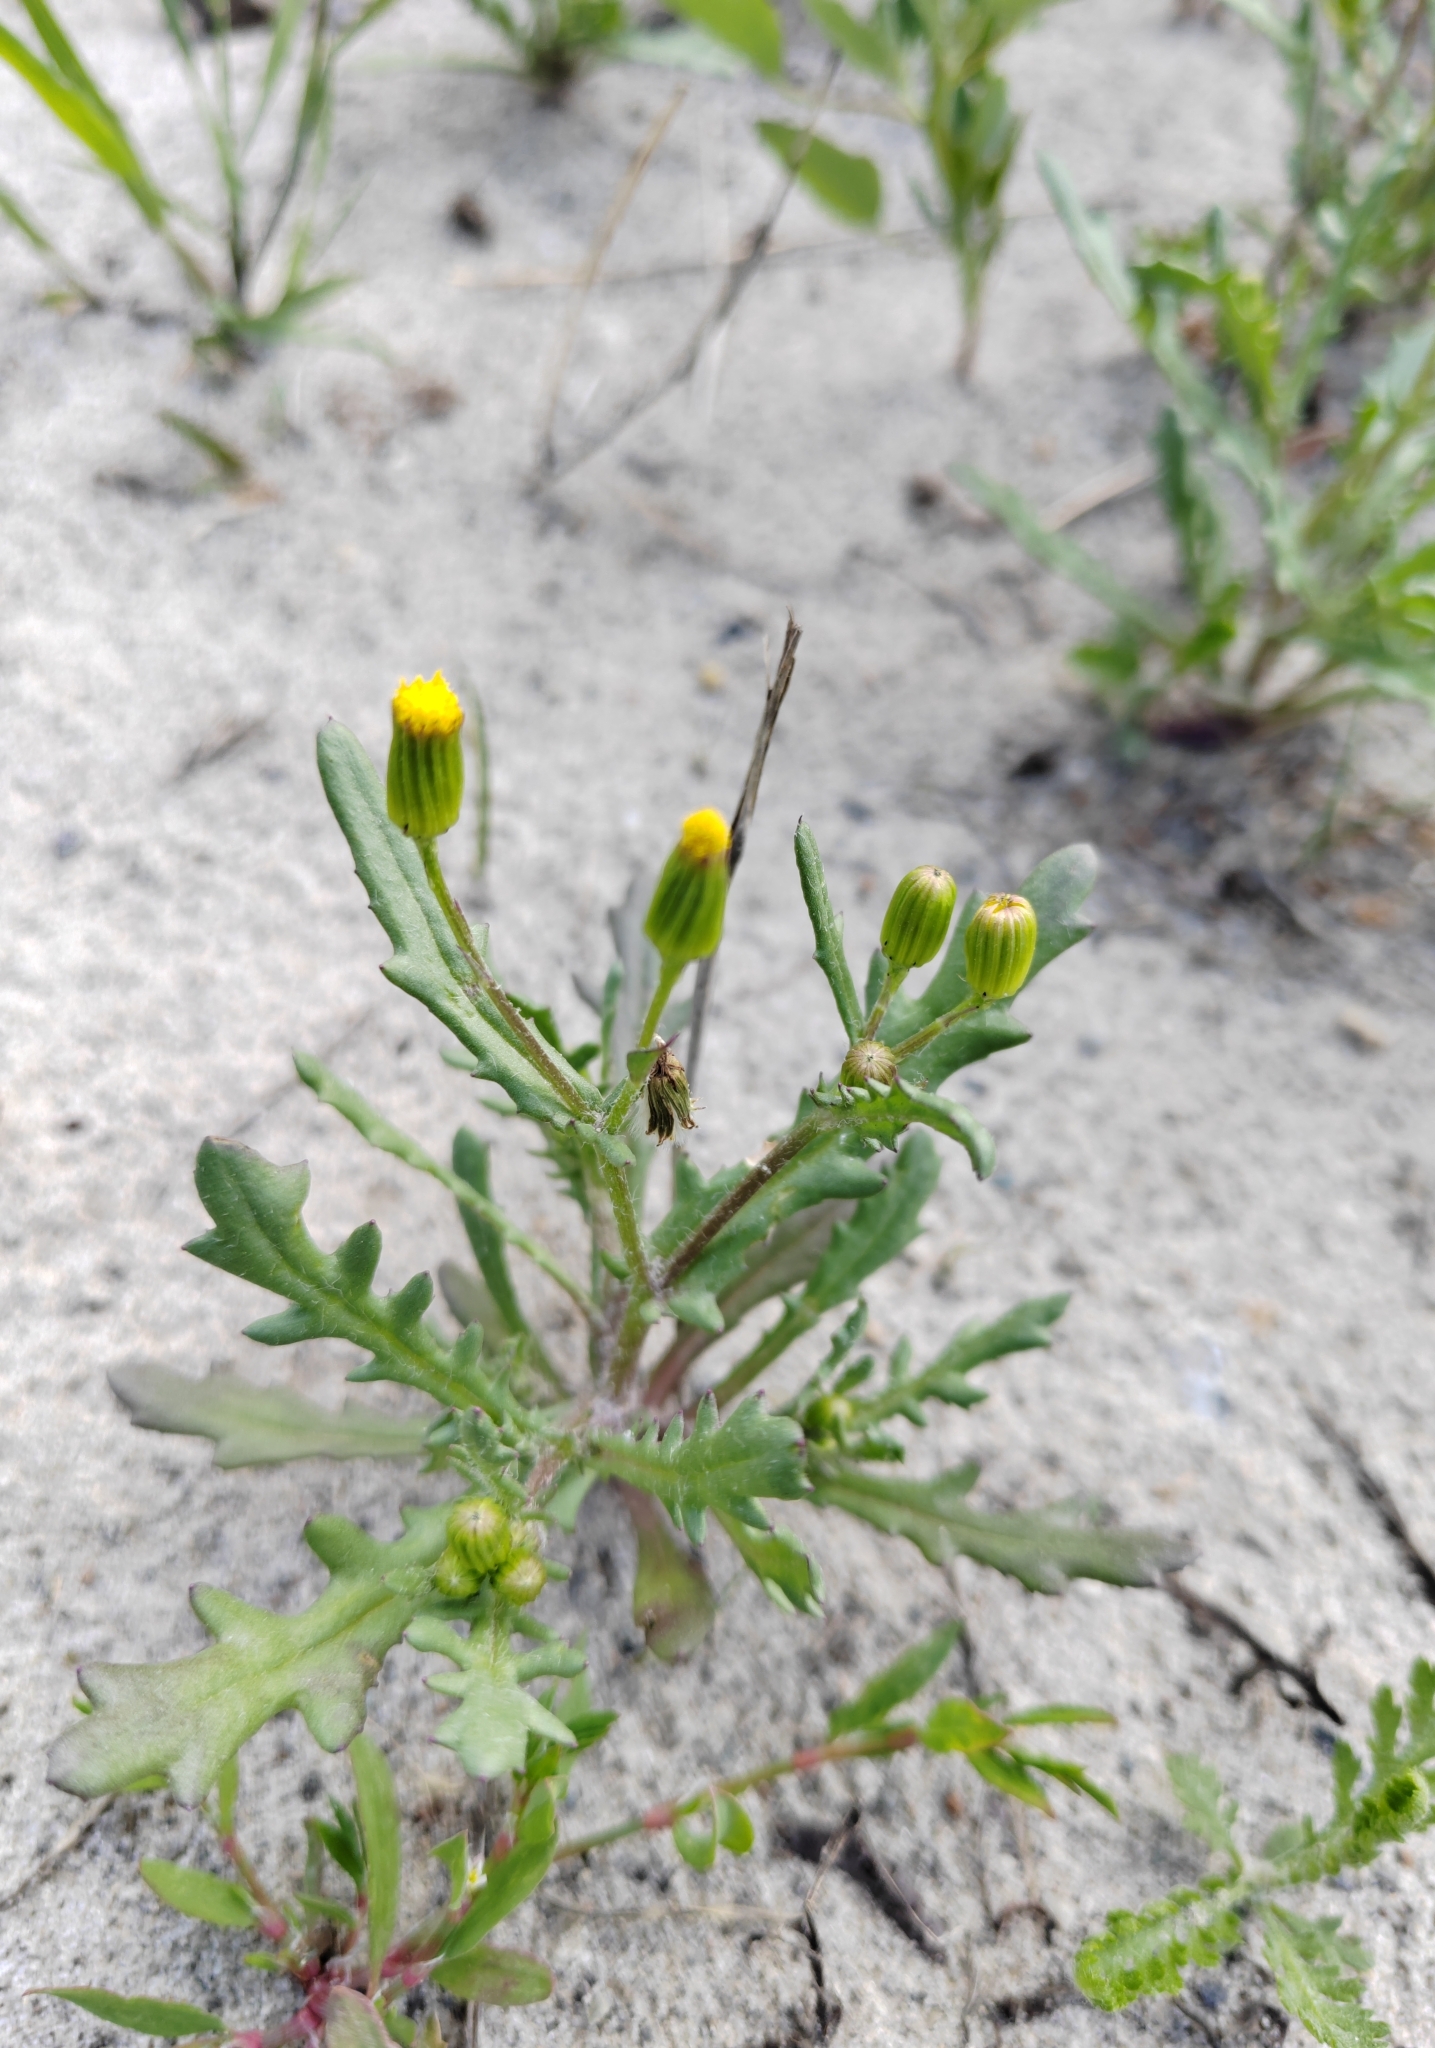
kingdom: Plantae
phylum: Tracheophyta
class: Magnoliopsida
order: Asterales
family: Asteraceae
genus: Senecio
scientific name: Senecio dubitabilis
